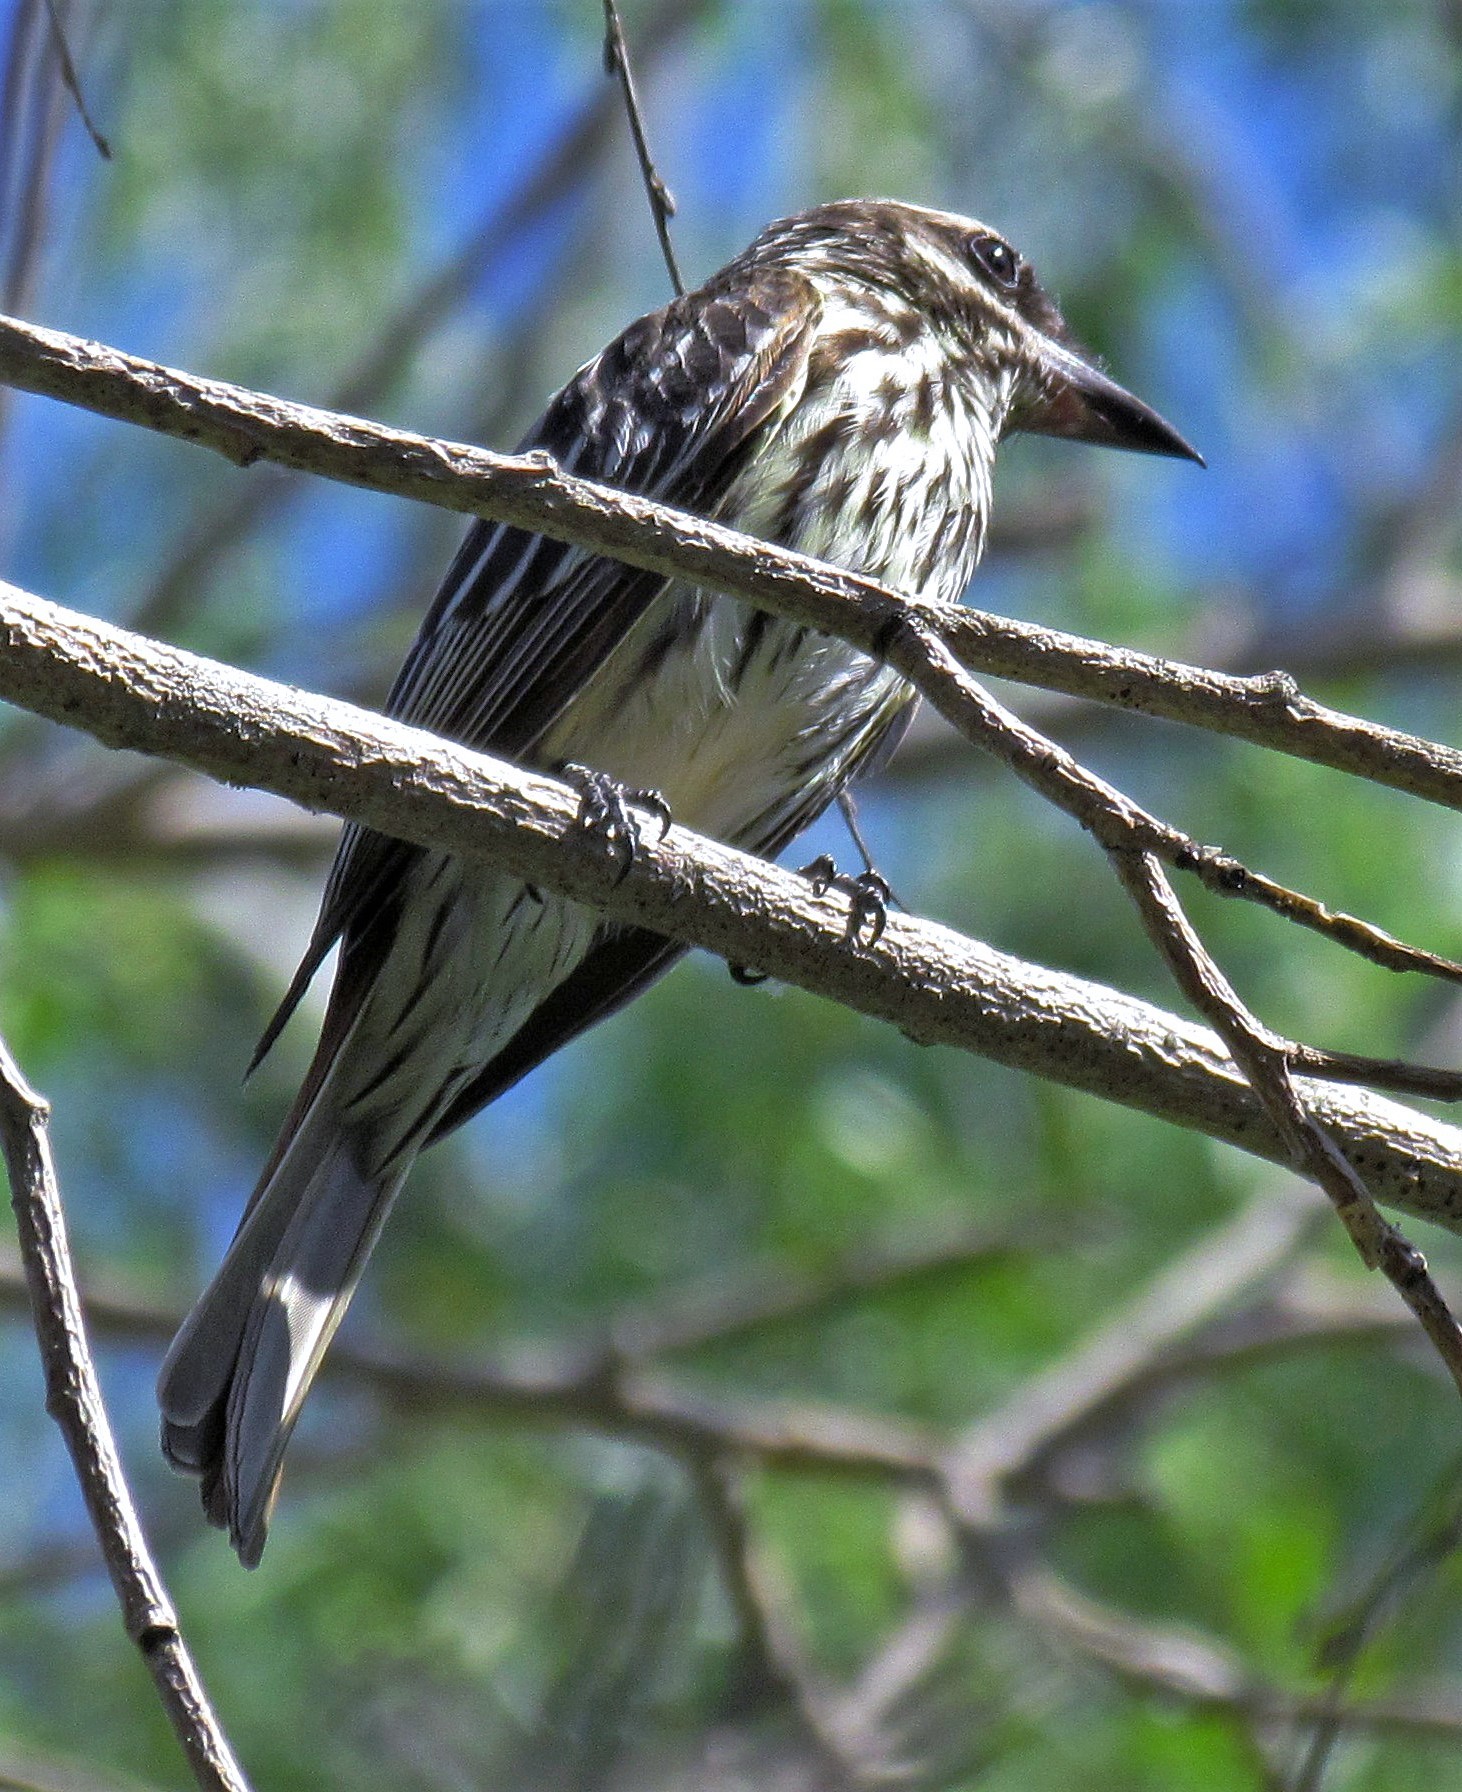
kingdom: Animalia
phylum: Chordata
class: Aves
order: Passeriformes
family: Tyrannidae
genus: Myiodynastes
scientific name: Myiodynastes maculatus
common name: Streaked flycatcher
